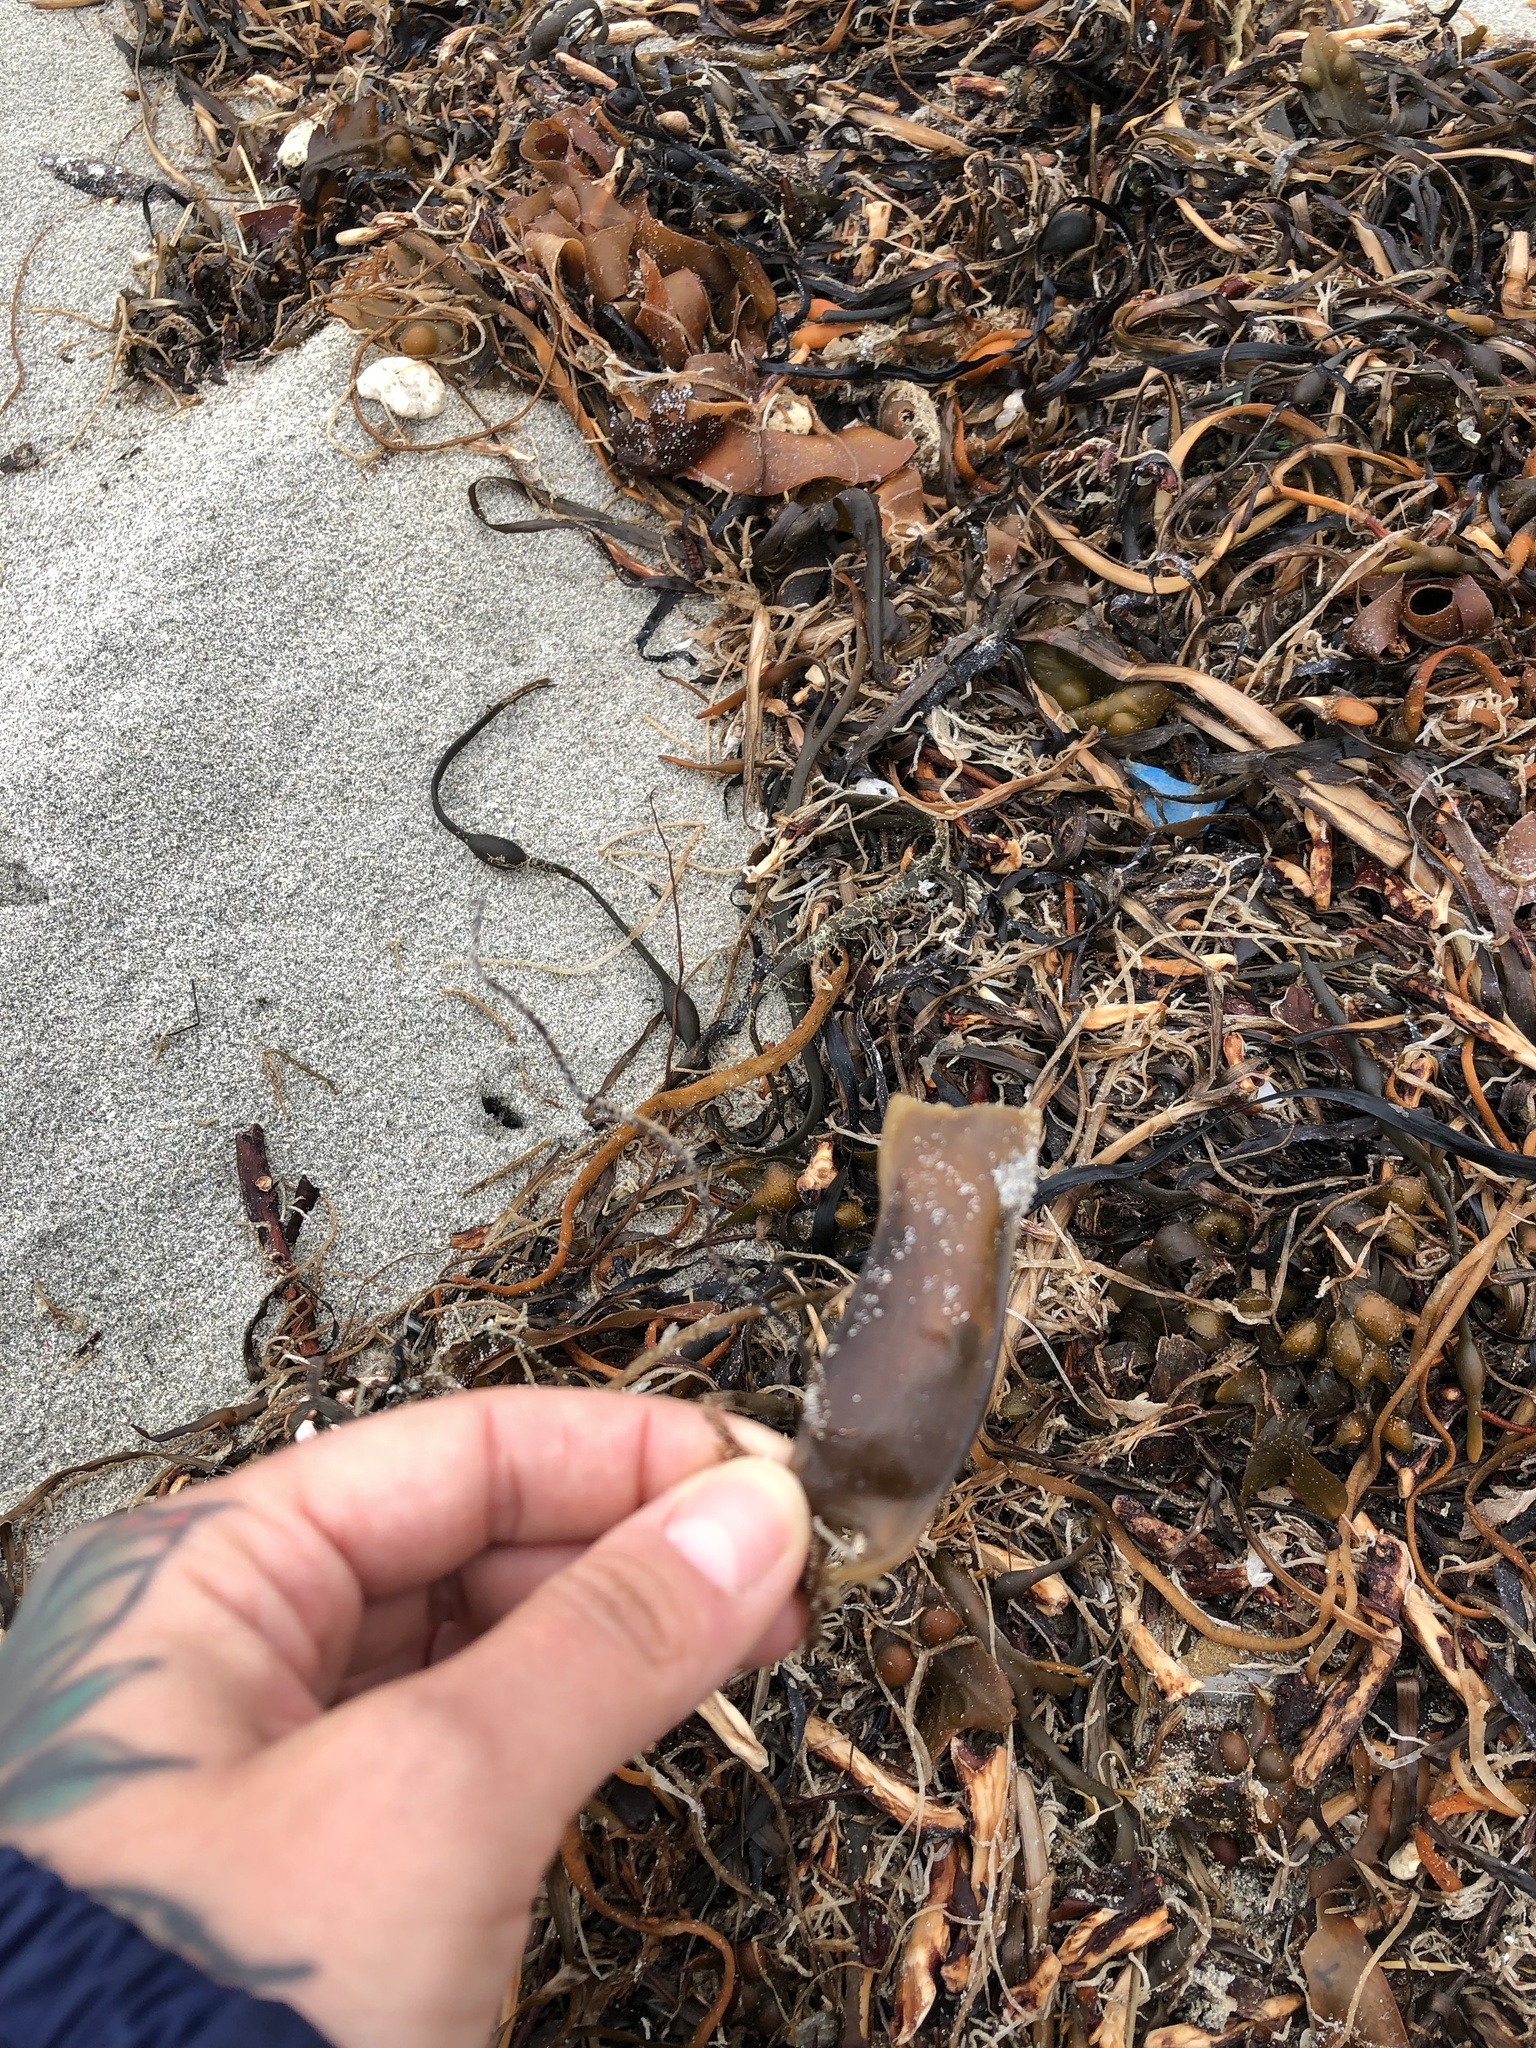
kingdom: Animalia
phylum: Chordata
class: Elasmobranchii
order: Carcharhiniformes
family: Scyliorhinidae
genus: Scyliorhinus
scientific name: Scyliorhinus canicula
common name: Lesser spotted dogfish
